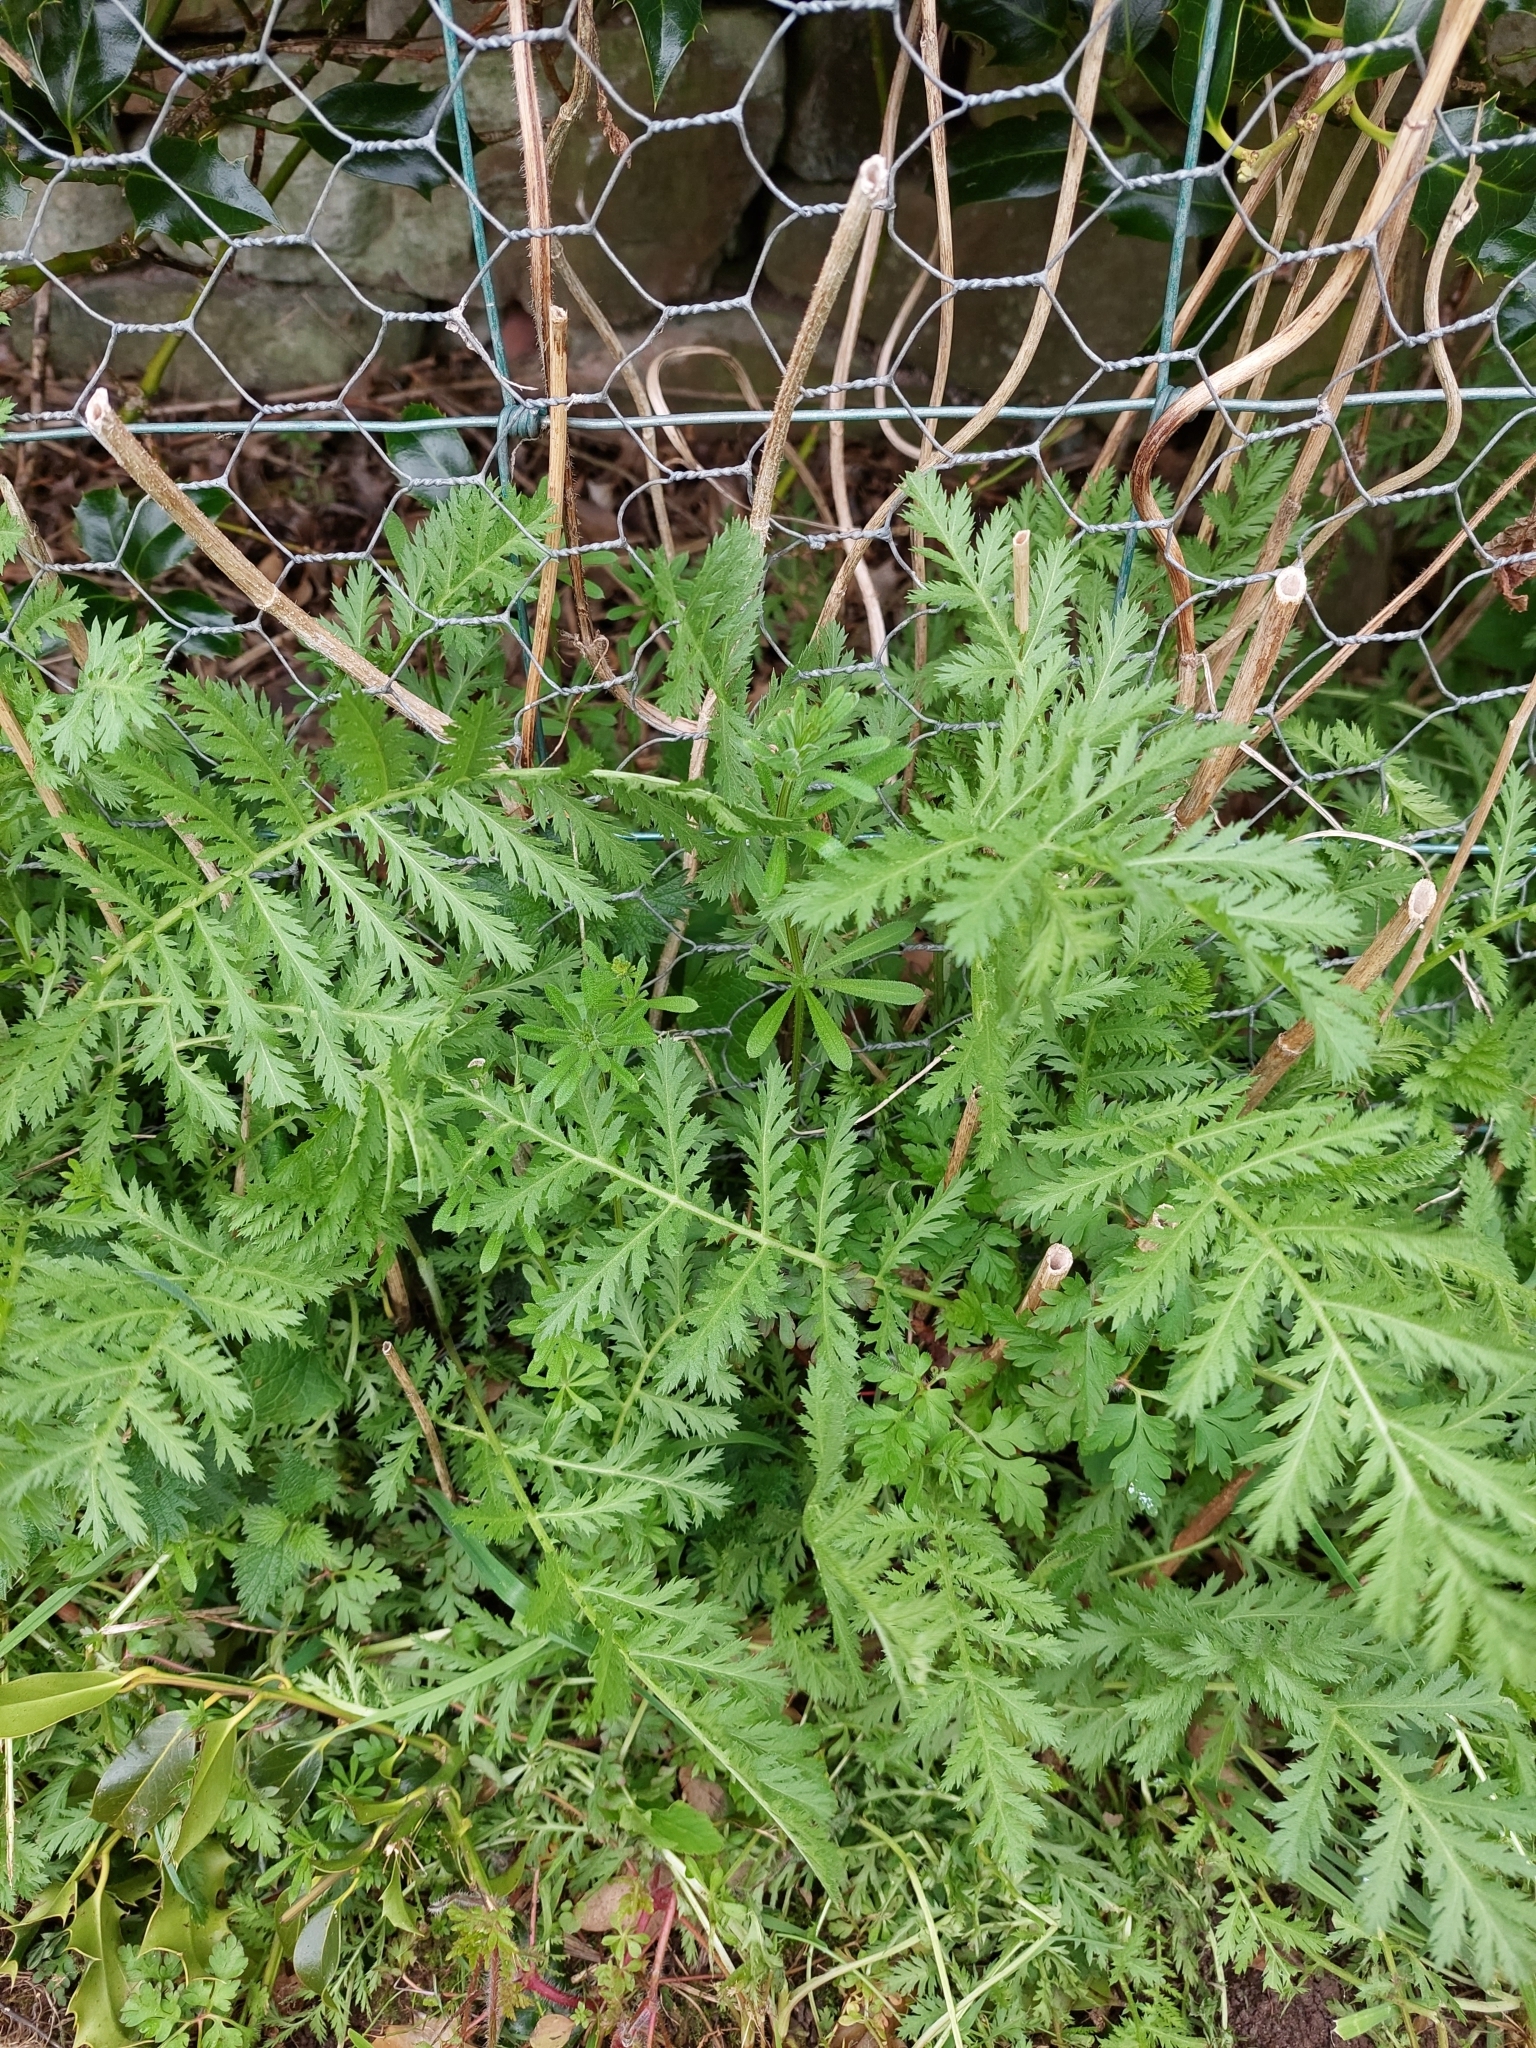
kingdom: Plantae
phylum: Tracheophyta
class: Magnoliopsida
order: Asterales
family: Asteraceae
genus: Tanacetum
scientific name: Tanacetum vulgare
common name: Common tansy
